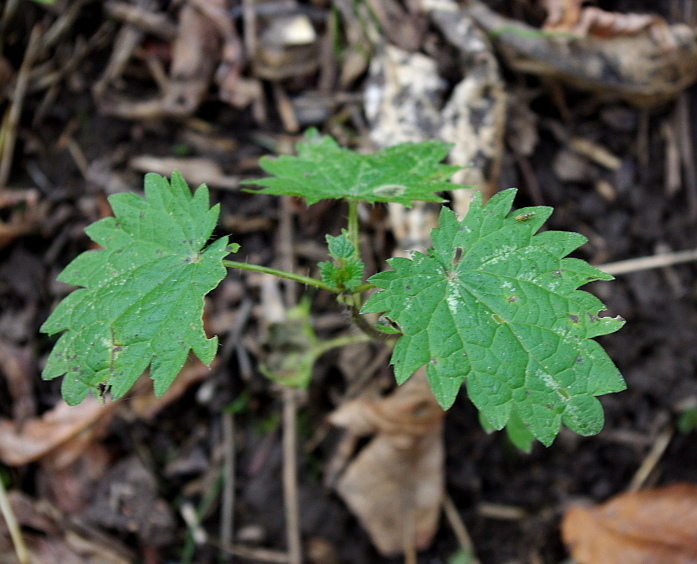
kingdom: Plantae
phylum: Tracheophyta
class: Magnoliopsida
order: Rosales
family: Urticaceae
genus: Urtica
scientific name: Urtica dioica
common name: Common nettle
